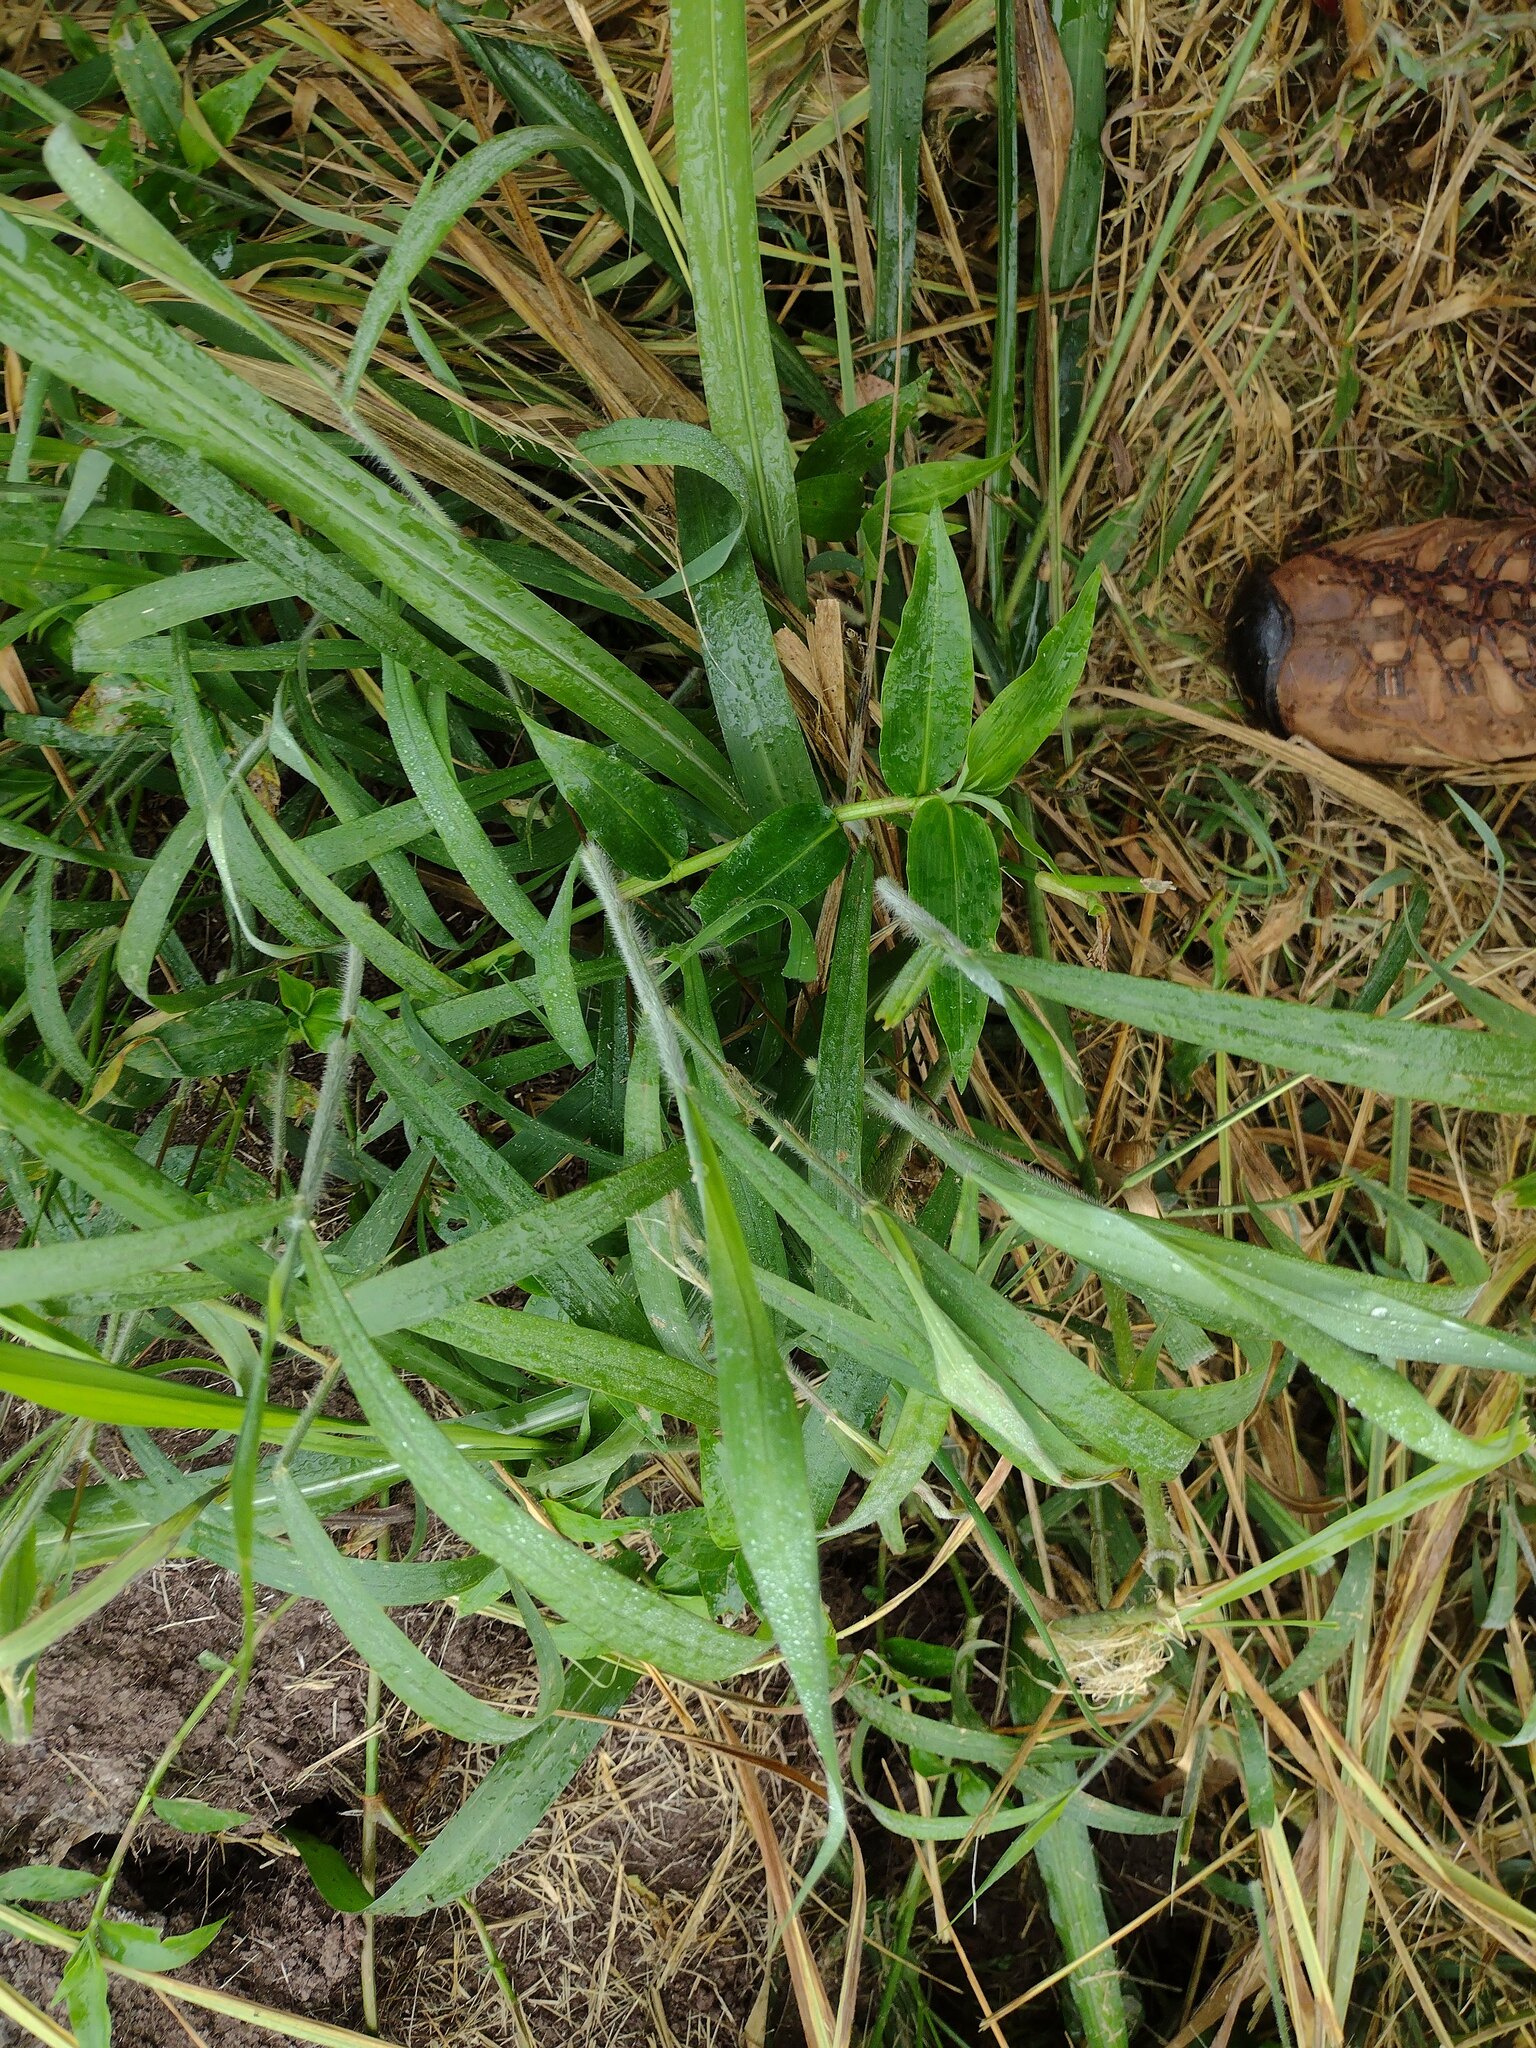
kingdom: Plantae
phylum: Tracheophyta
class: Liliopsida
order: Poales
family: Poaceae
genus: Melinis
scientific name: Melinis minutiflora
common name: Molassesgrass
